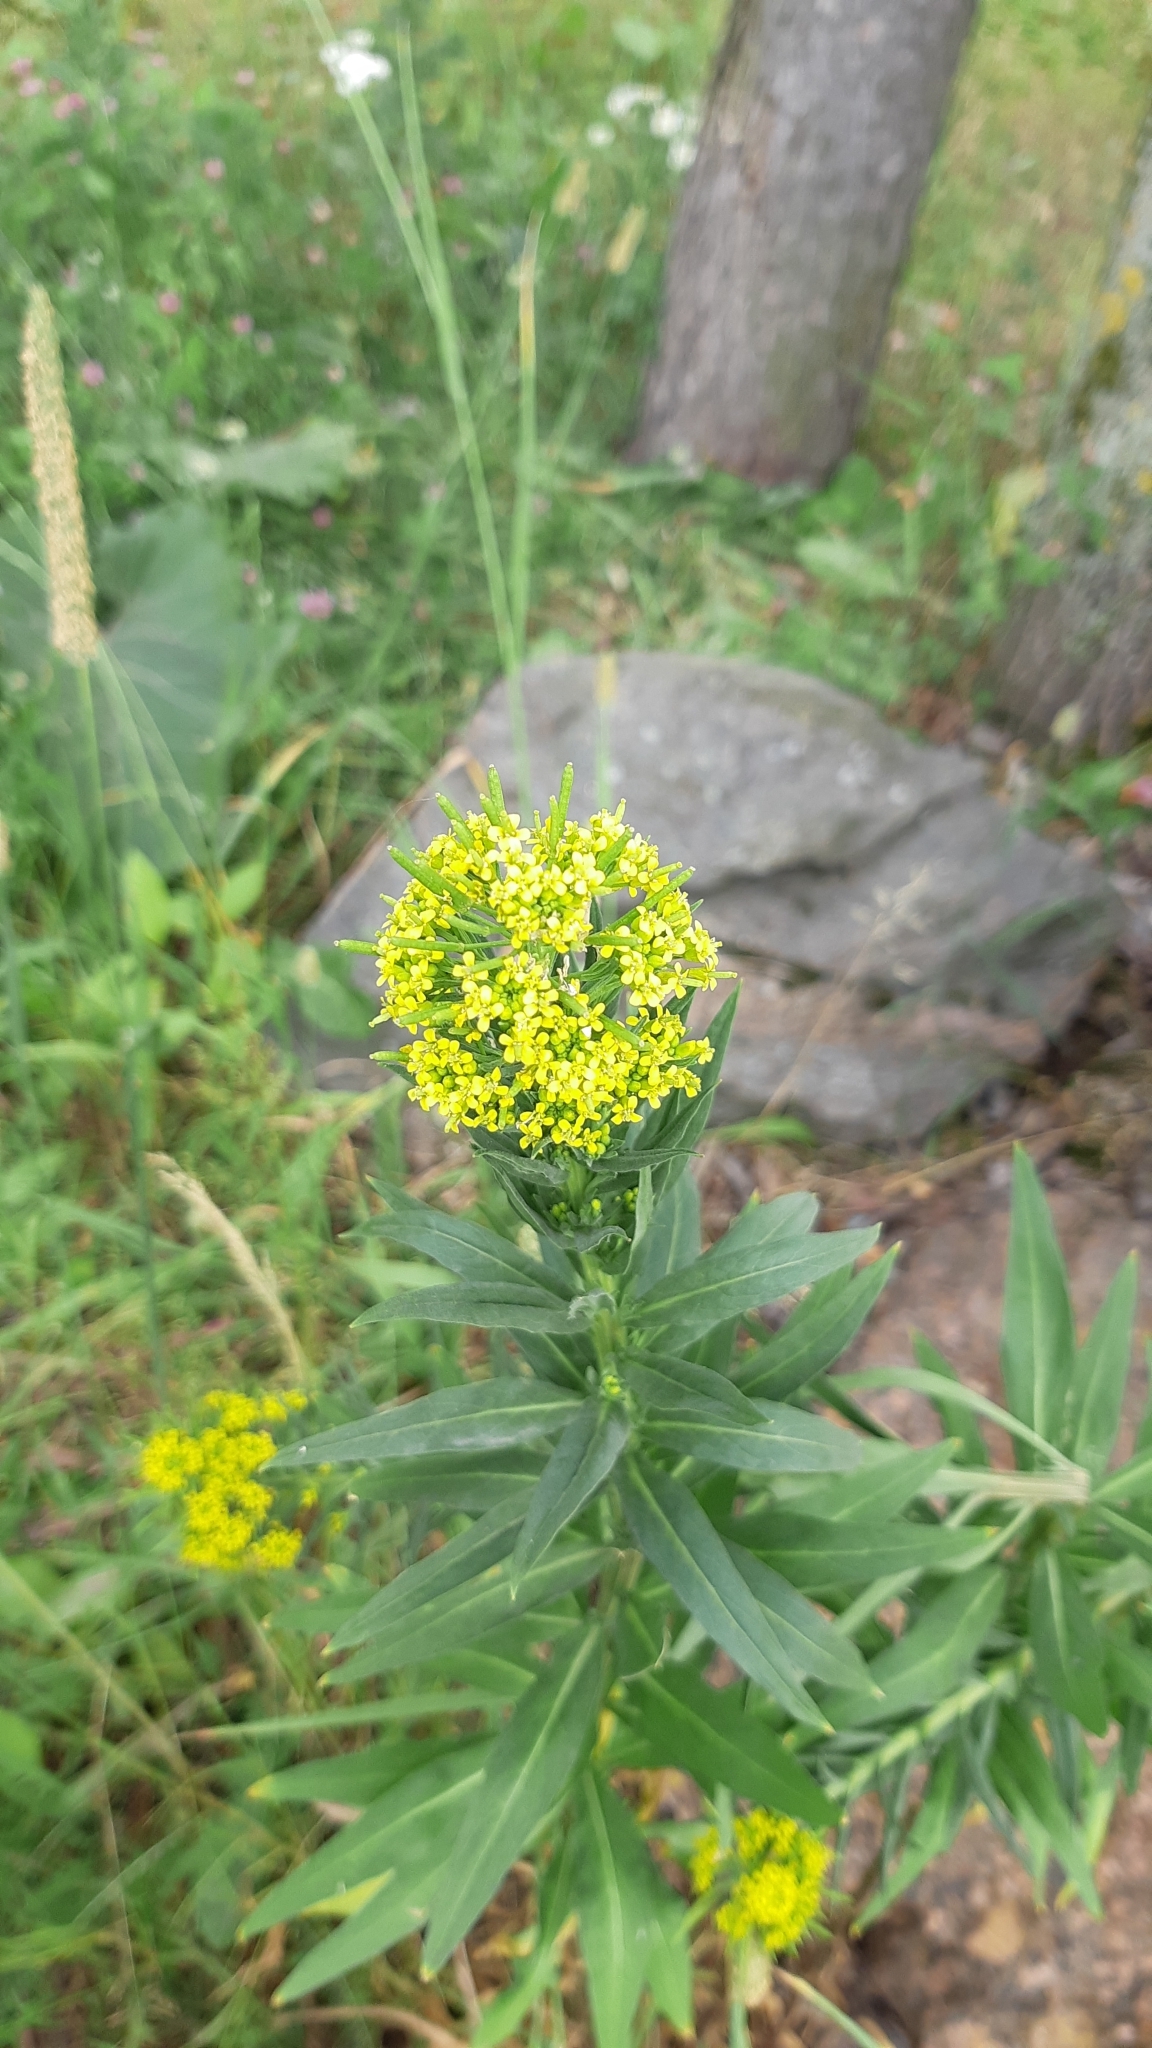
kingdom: Plantae
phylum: Tracheophyta
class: Magnoliopsida
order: Brassicales
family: Brassicaceae
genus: Erysimum
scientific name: Erysimum cheiranthoides
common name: Treacle mustard
